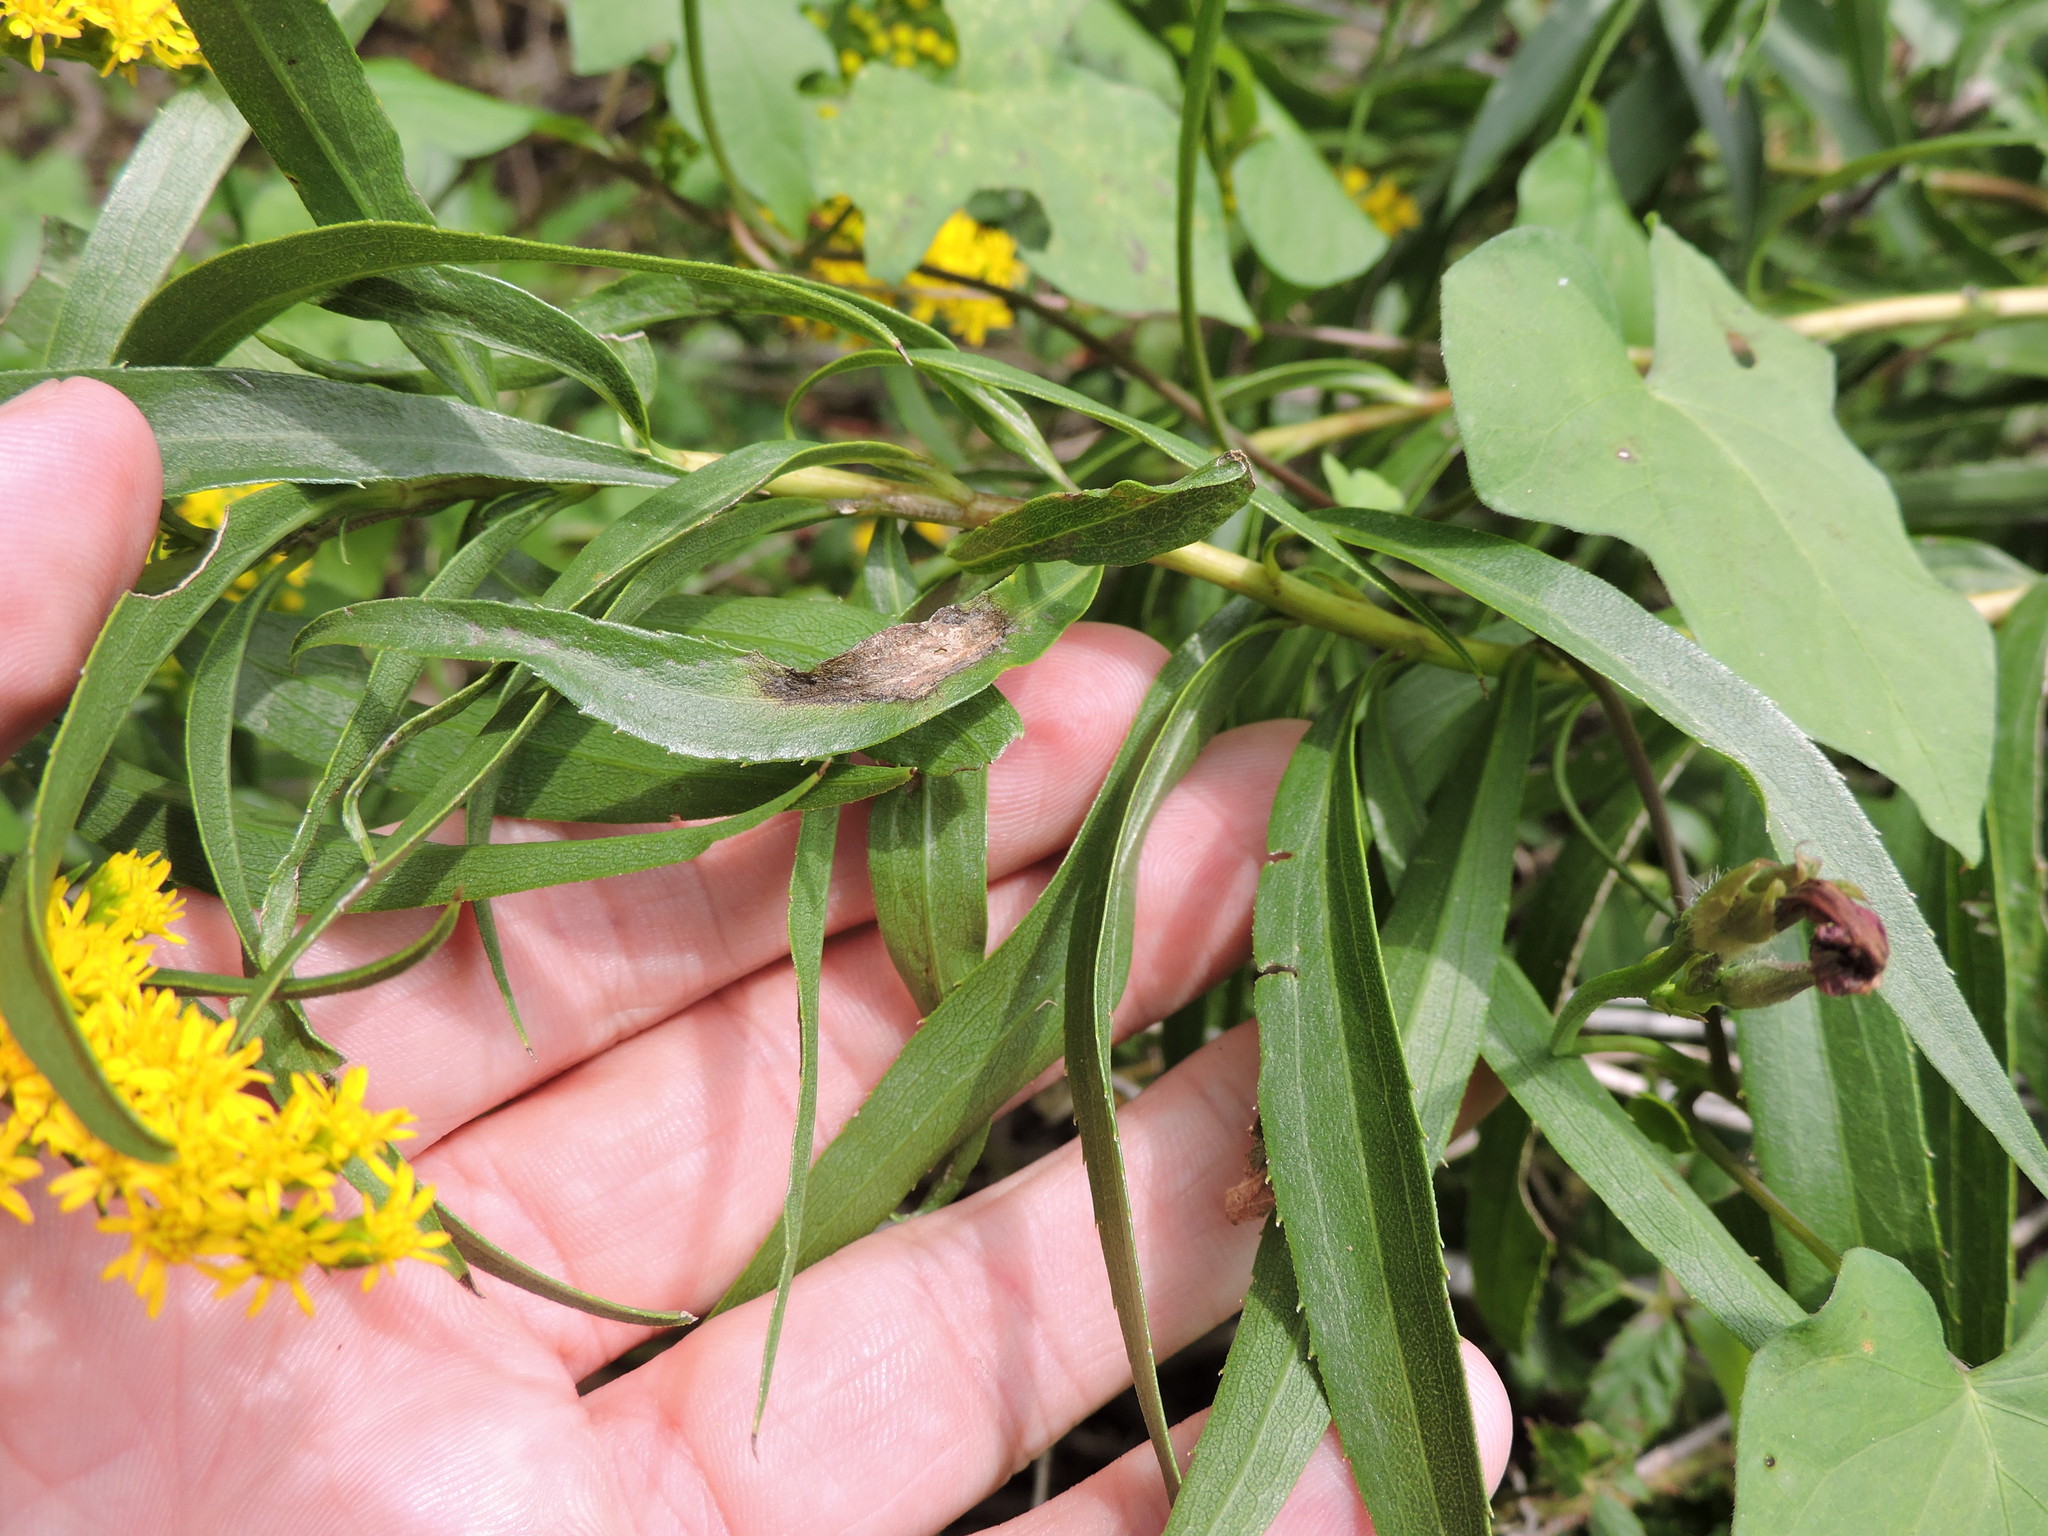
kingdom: Plantae
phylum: Tracheophyta
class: Magnoliopsida
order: Asterales
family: Asteraceae
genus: Solidago
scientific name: Solidago altissima
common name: Late goldenrod
